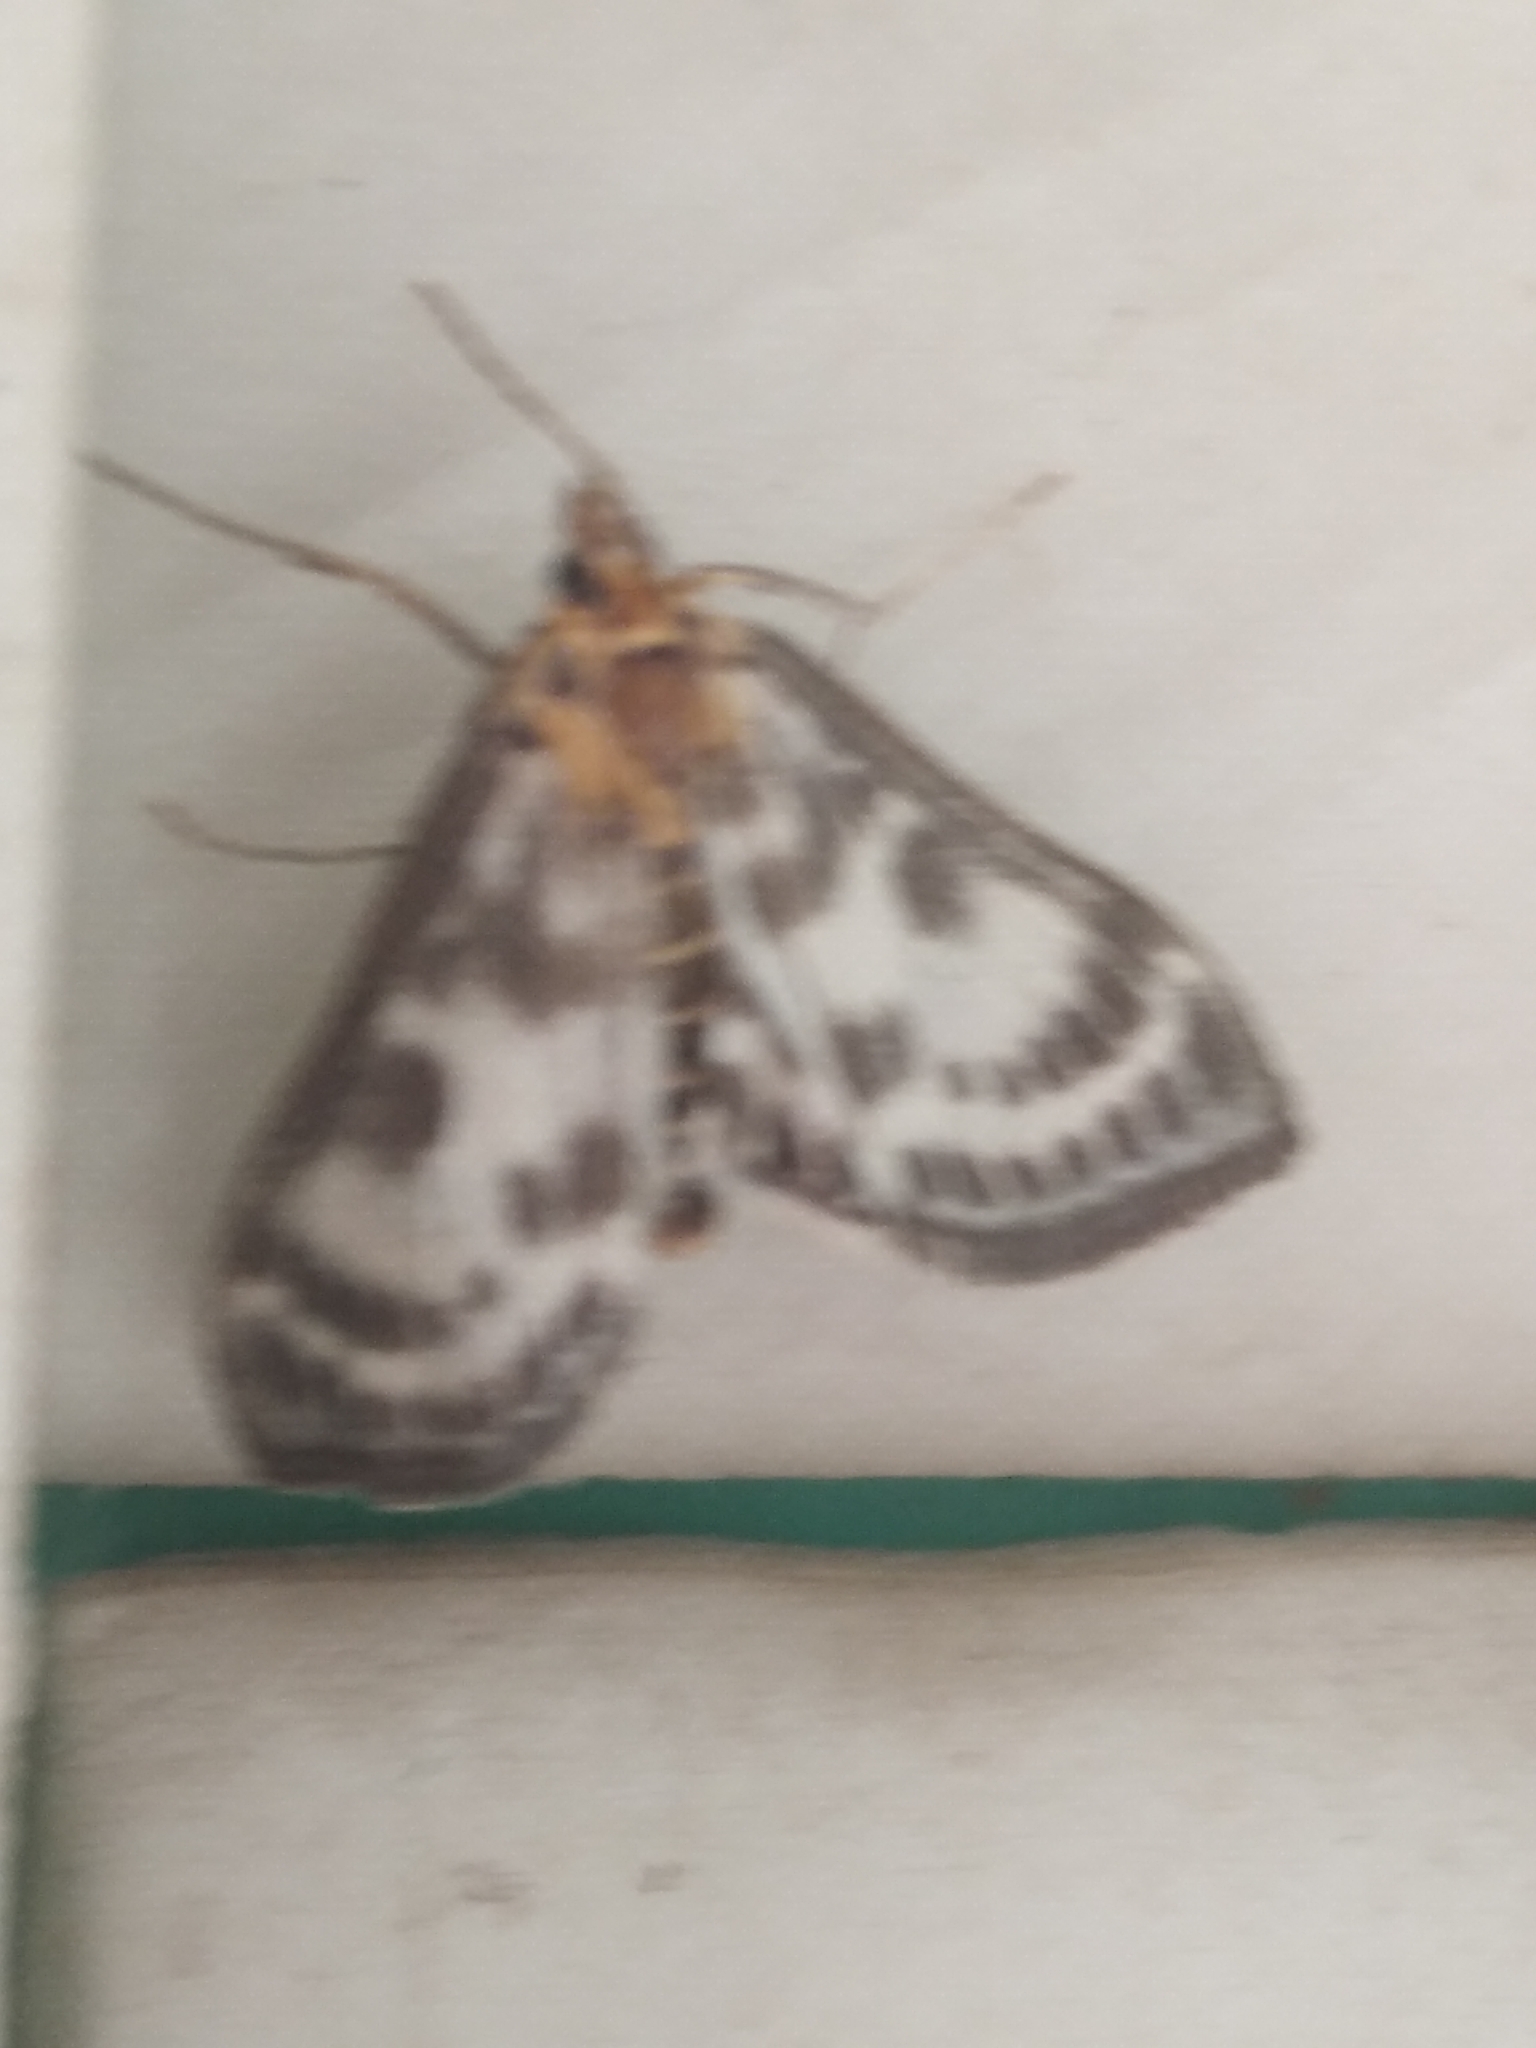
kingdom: Animalia
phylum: Arthropoda
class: Insecta
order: Lepidoptera
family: Crambidae
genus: Anania
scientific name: Anania hortulata
